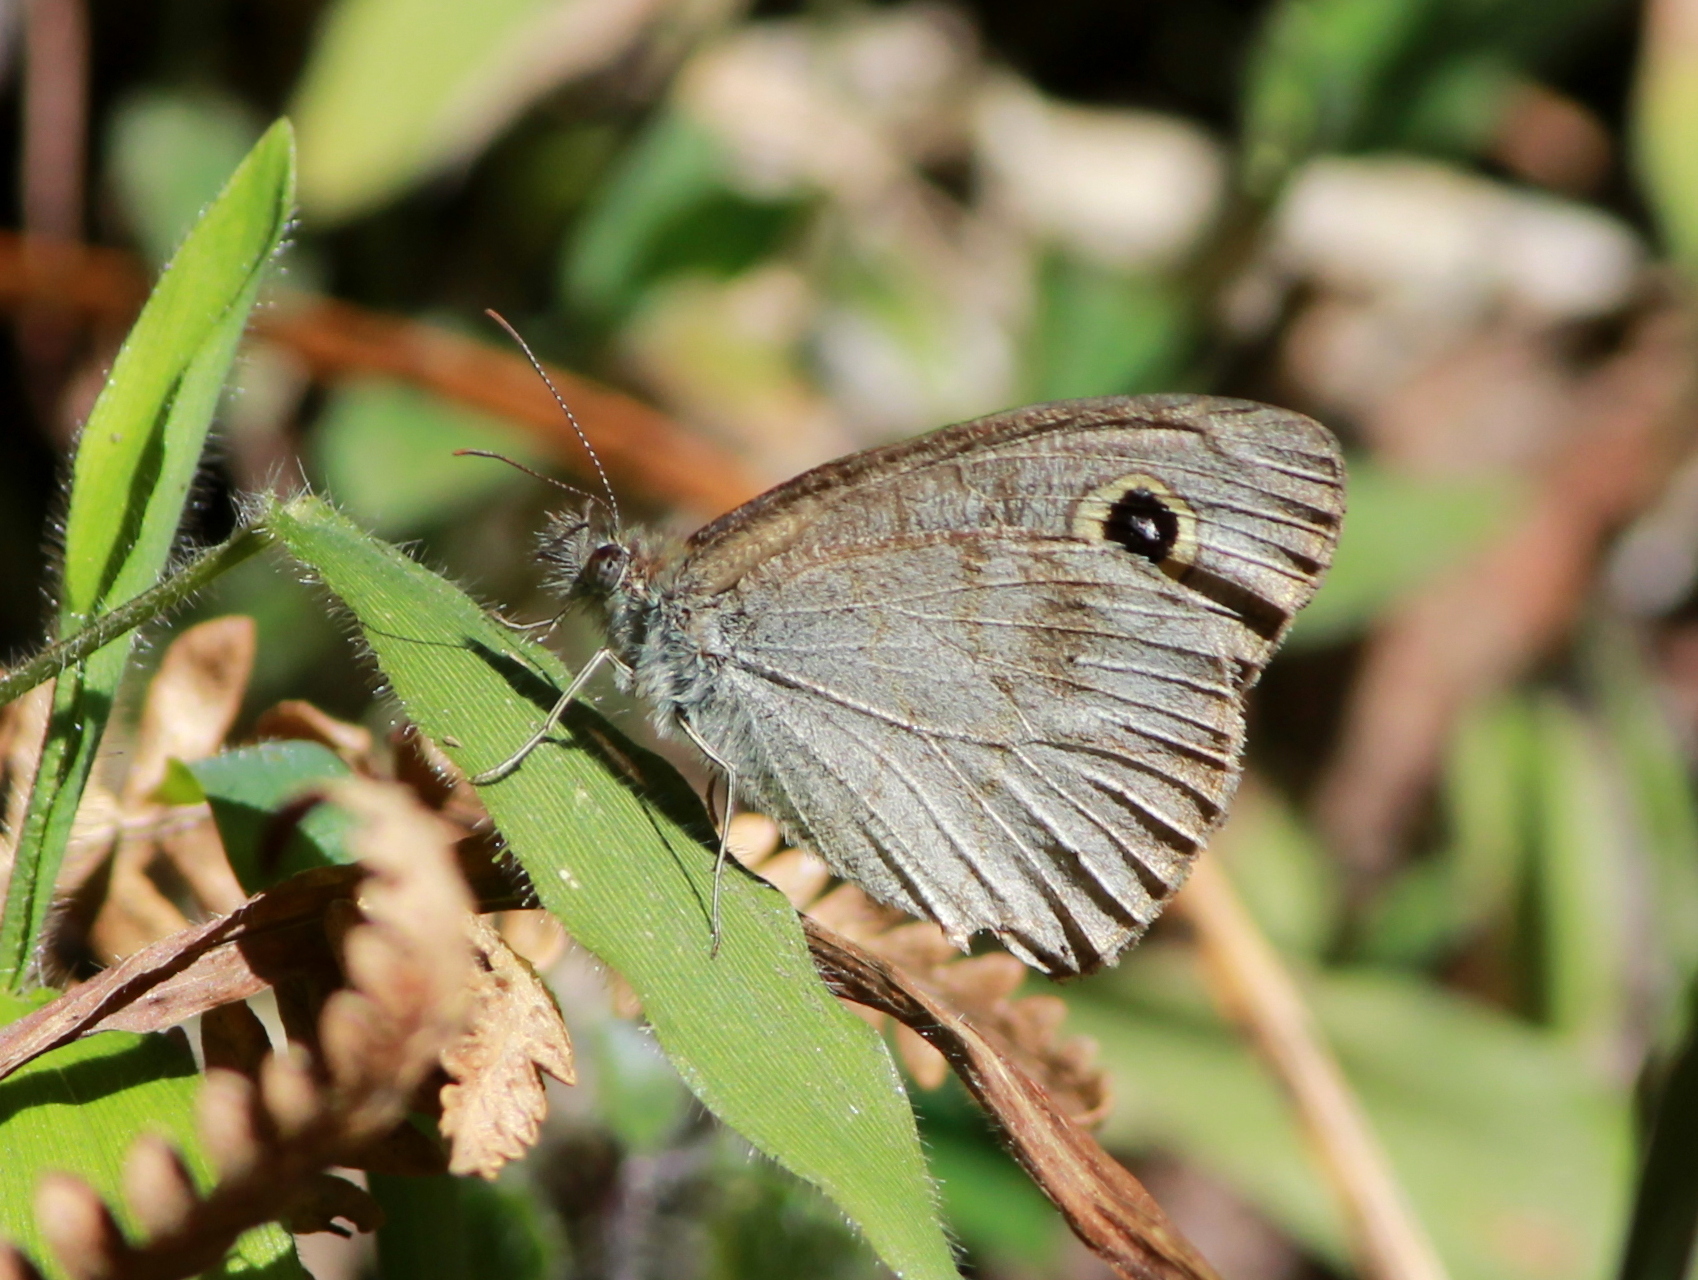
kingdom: Animalia
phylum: Arthropoda
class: Insecta
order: Lepidoptera
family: Nymphalidae
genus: Ypthima
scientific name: Ypthima baldus
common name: Common five-ring
